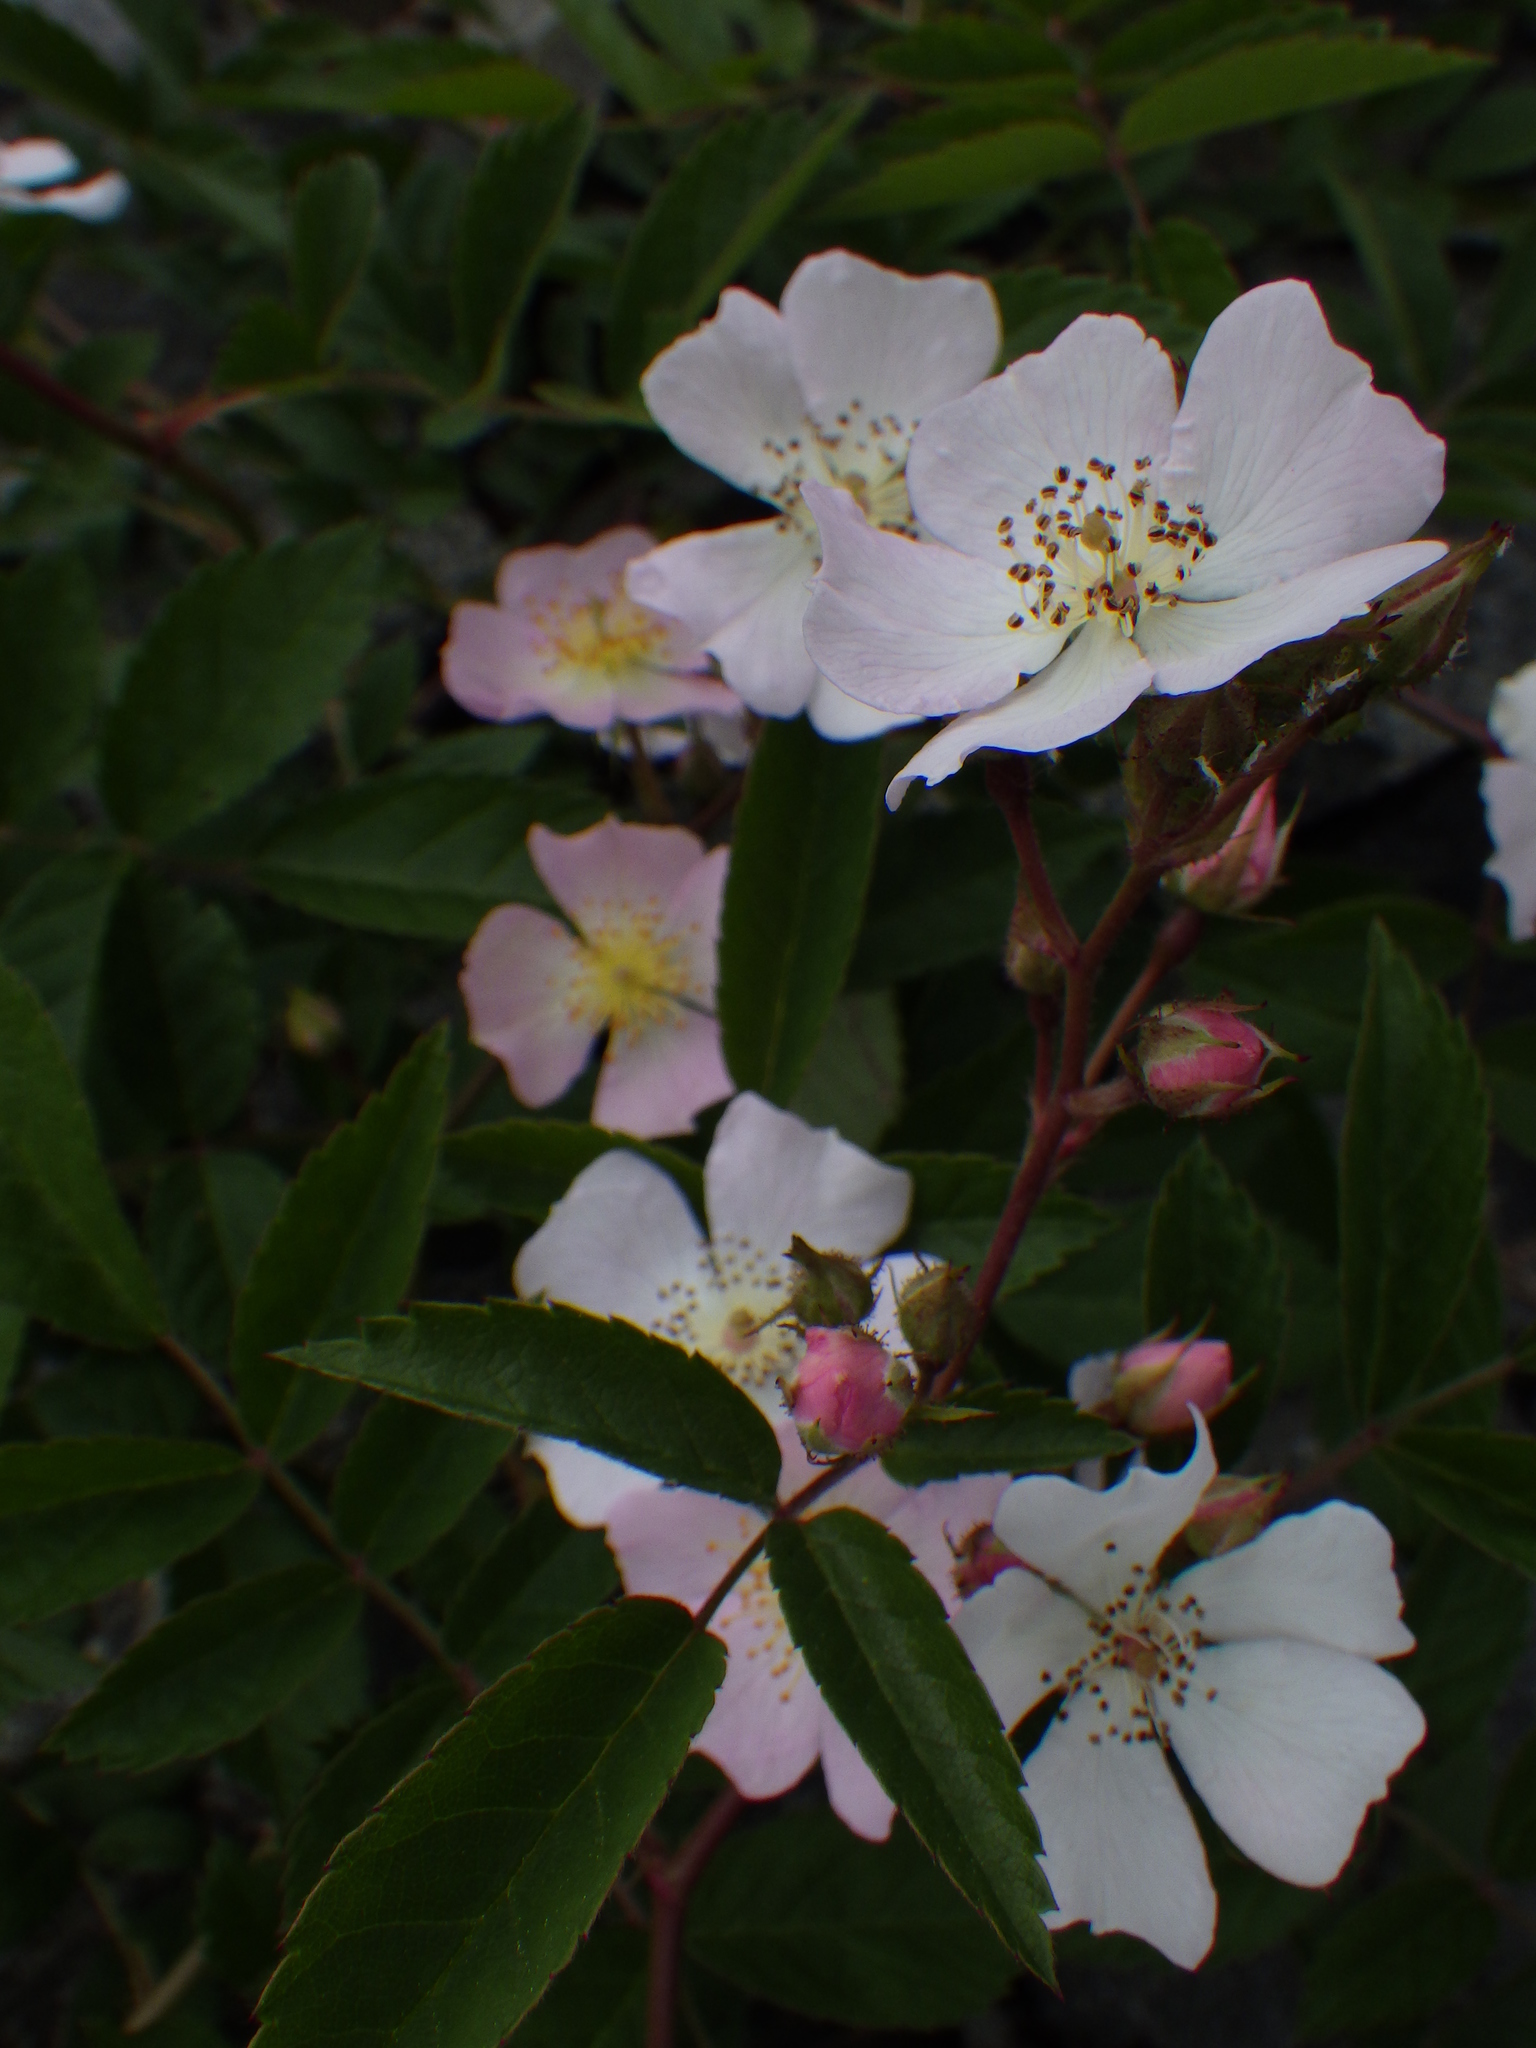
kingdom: Plantae
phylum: Tracheophyta
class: Magnoliopsida
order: Rosales
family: Rosaceae
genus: Rosa
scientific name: Rosa multiflora
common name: Multiflora rose
